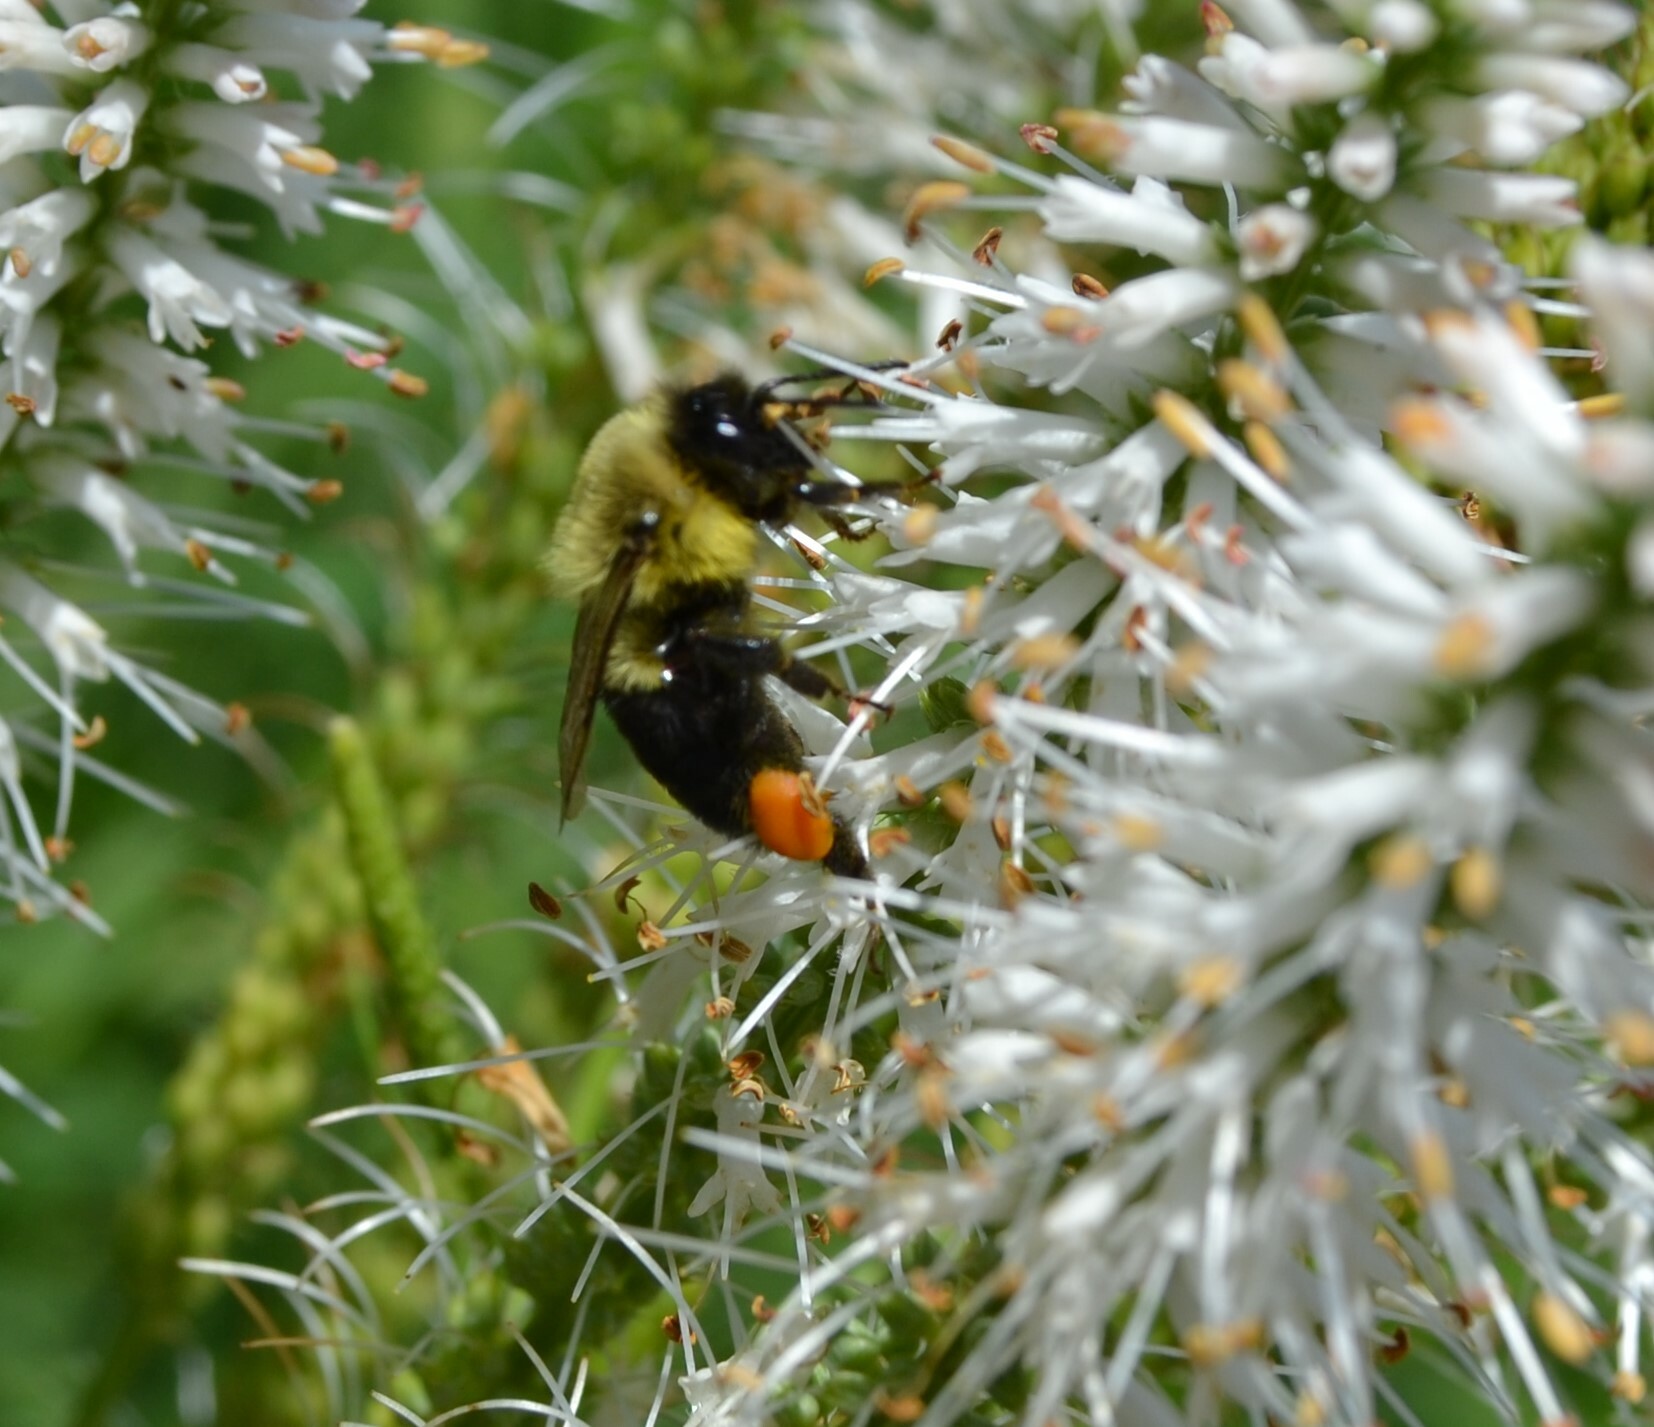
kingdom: Animalia
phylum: Arthropoda
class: Insecta
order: Hymenoptera
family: Apidae
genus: Bombus
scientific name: Bombus impatiens
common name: Common eastern bumble bee
